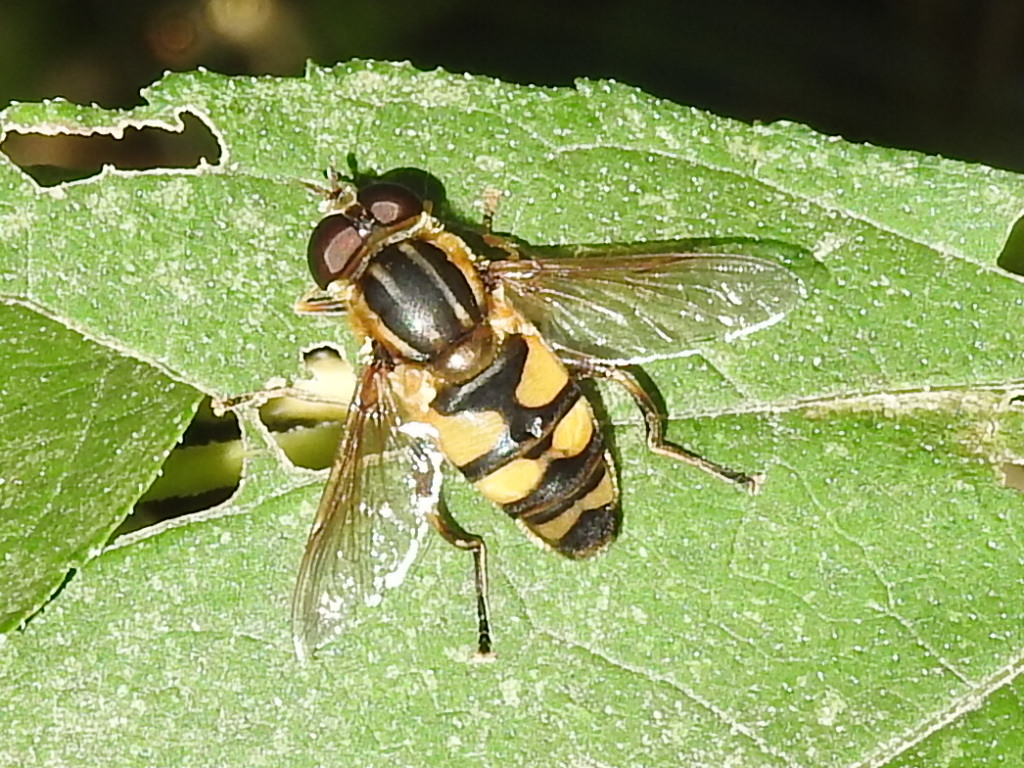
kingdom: Animalia
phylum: Arthropoda
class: Insecta
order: Diptera
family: Syrphidae
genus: Helophilus
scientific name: Helophilus fasciatus
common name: Narrow-headed marsh fly
